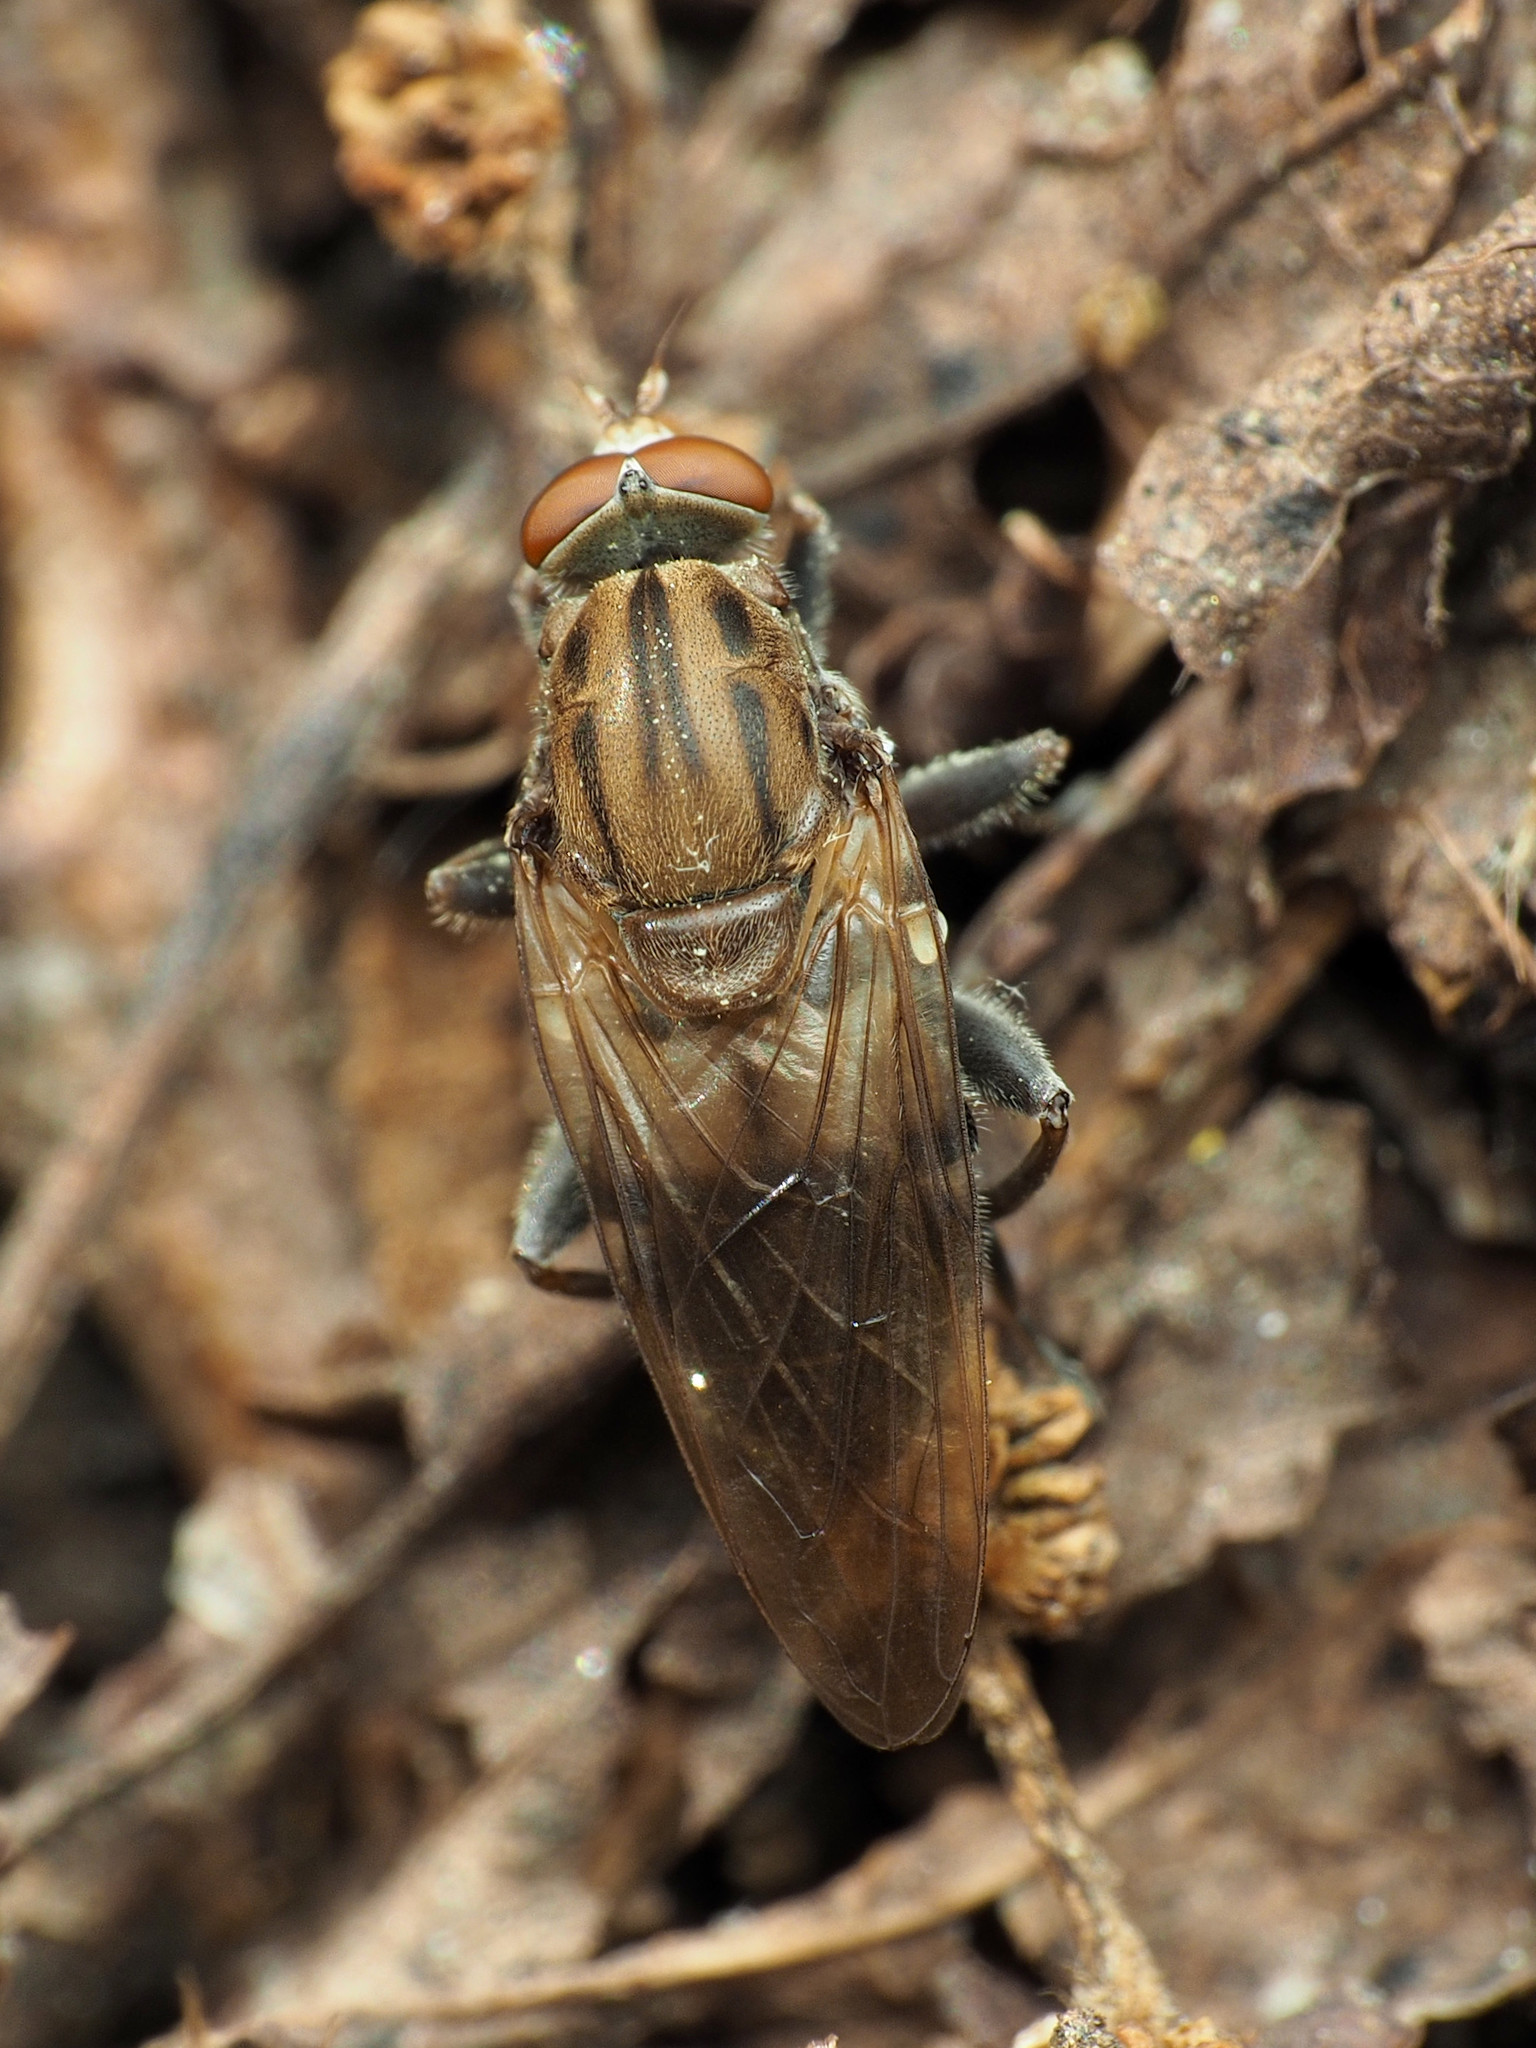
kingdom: Animalia
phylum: Arthropoda
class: Insecta
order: Diptera
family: Syrphidae
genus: Brachyopa
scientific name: Brachyopa vacua
